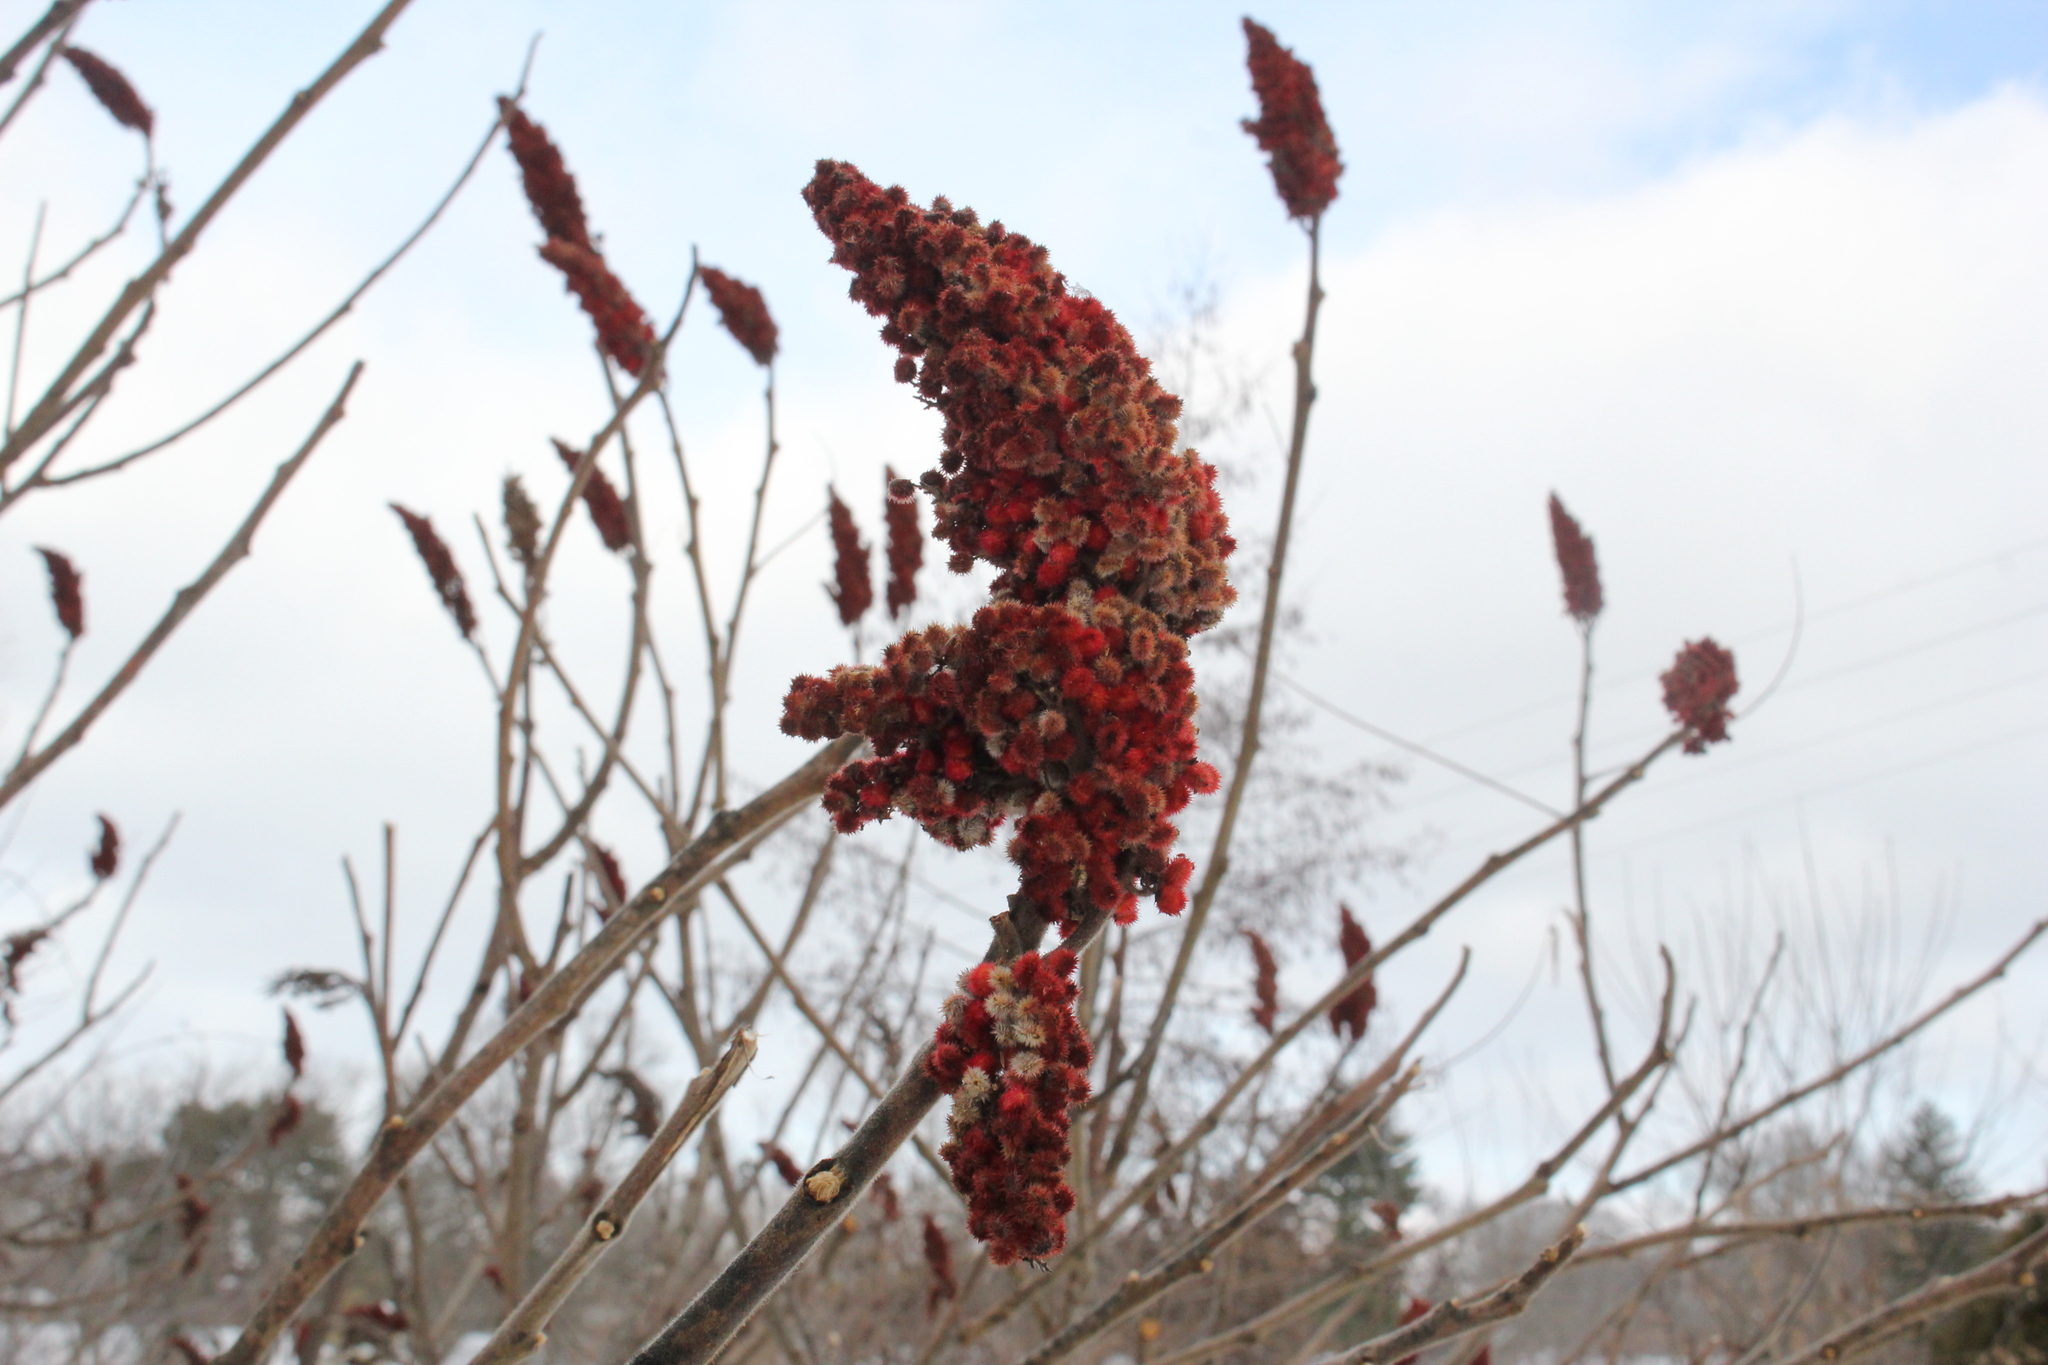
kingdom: Plantae
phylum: Tracheophyta
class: Magnoliopsida
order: Sapindales
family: Anacardiaceae
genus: Rhus
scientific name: Rhus typhina
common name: Staghorn sumac
